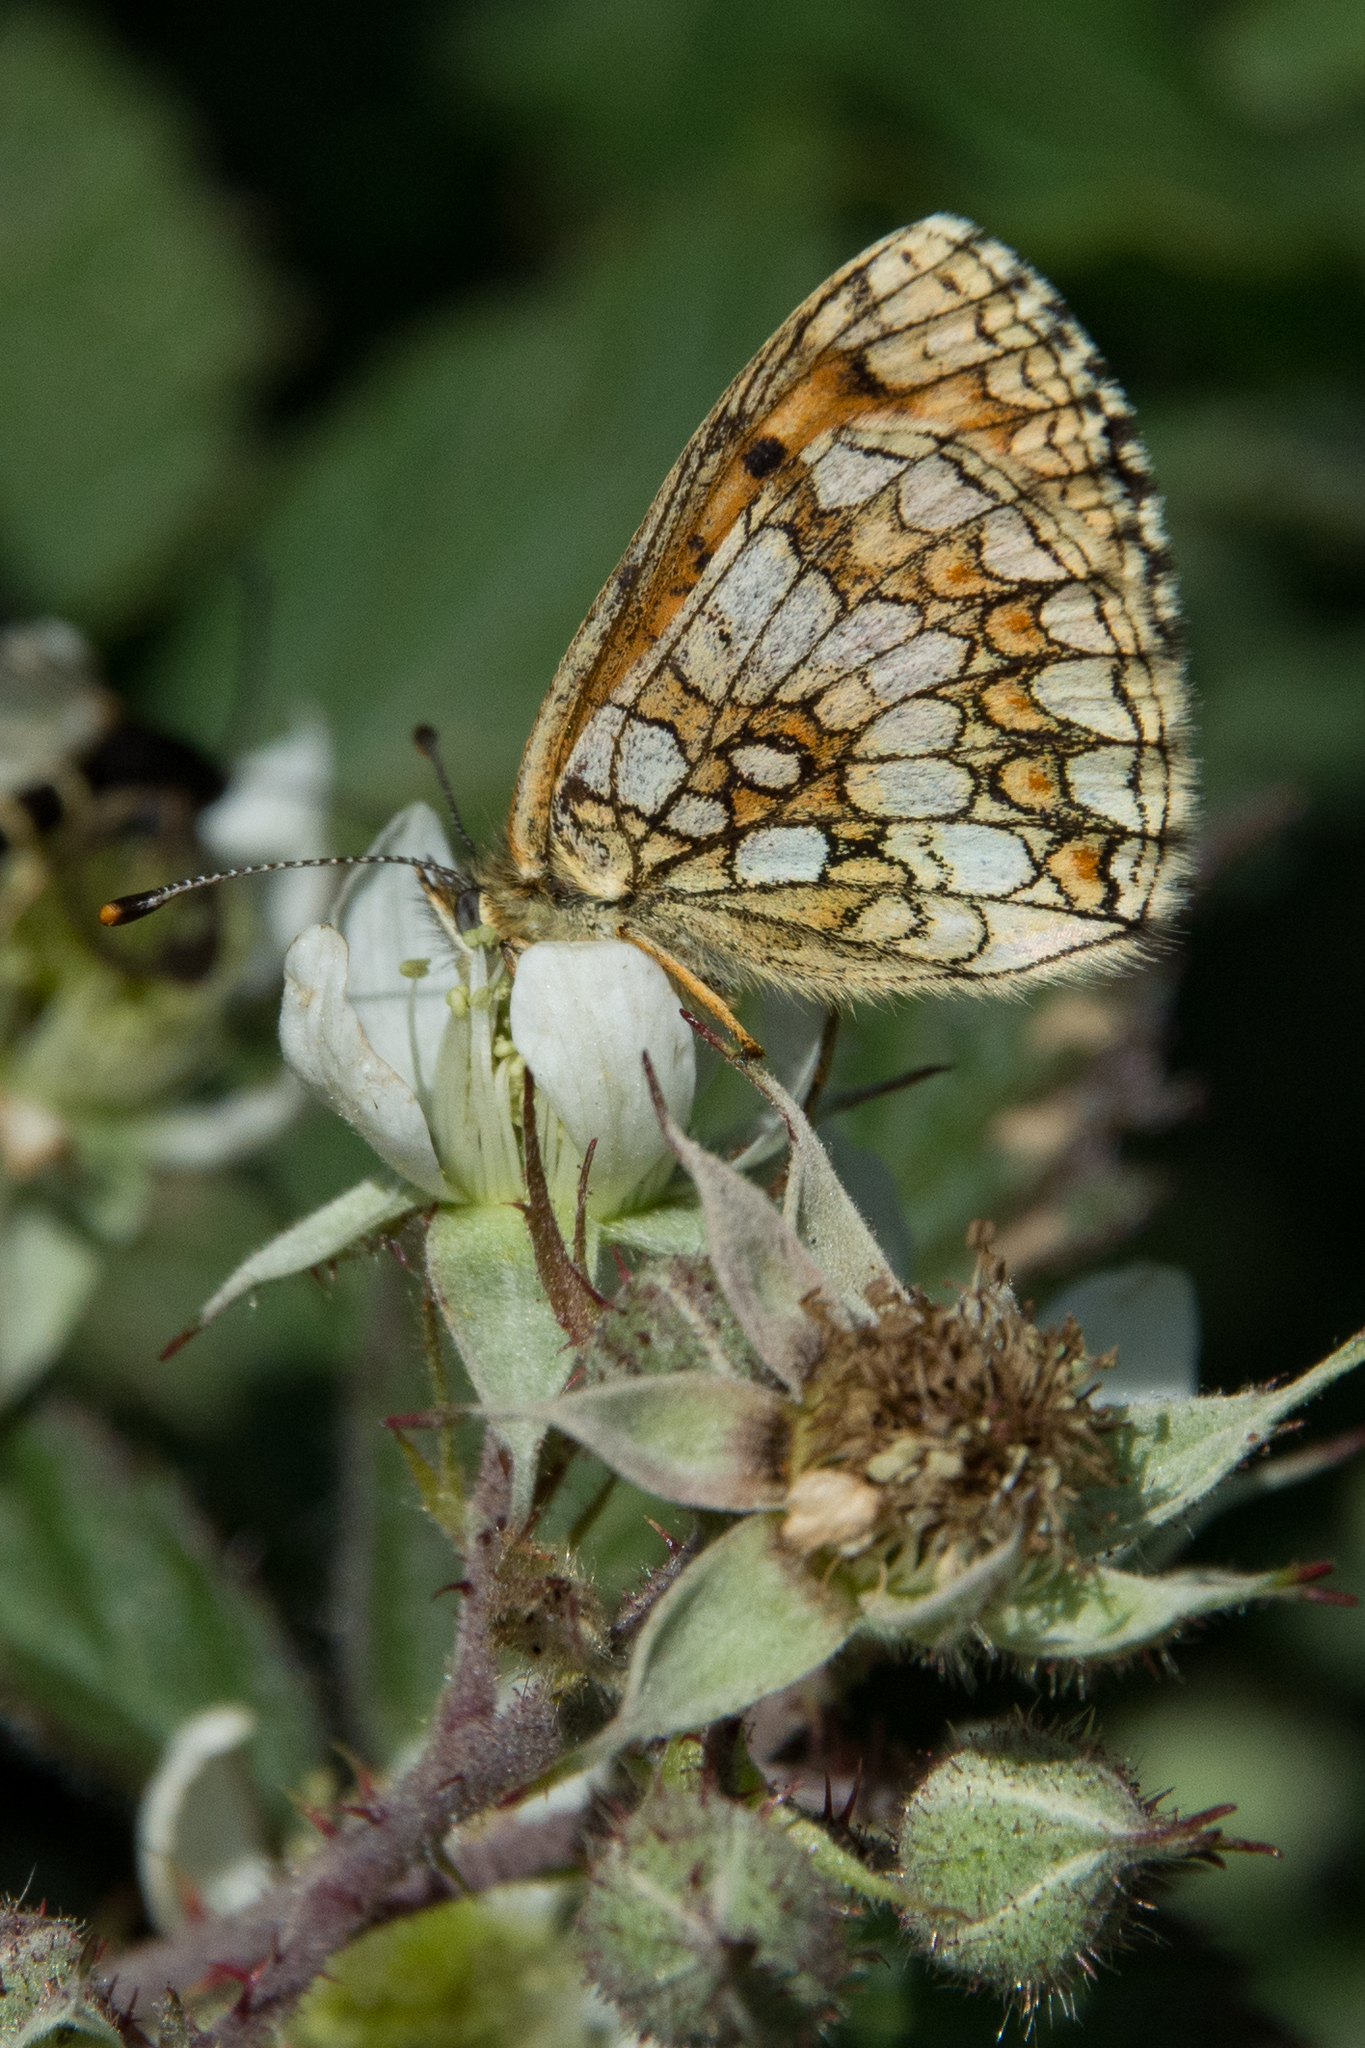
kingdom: Animalia
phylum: Arthropoda
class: Insecta
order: Lepidoptera
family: Nymphalidae
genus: Mellicta
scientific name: Mellicta athalia
